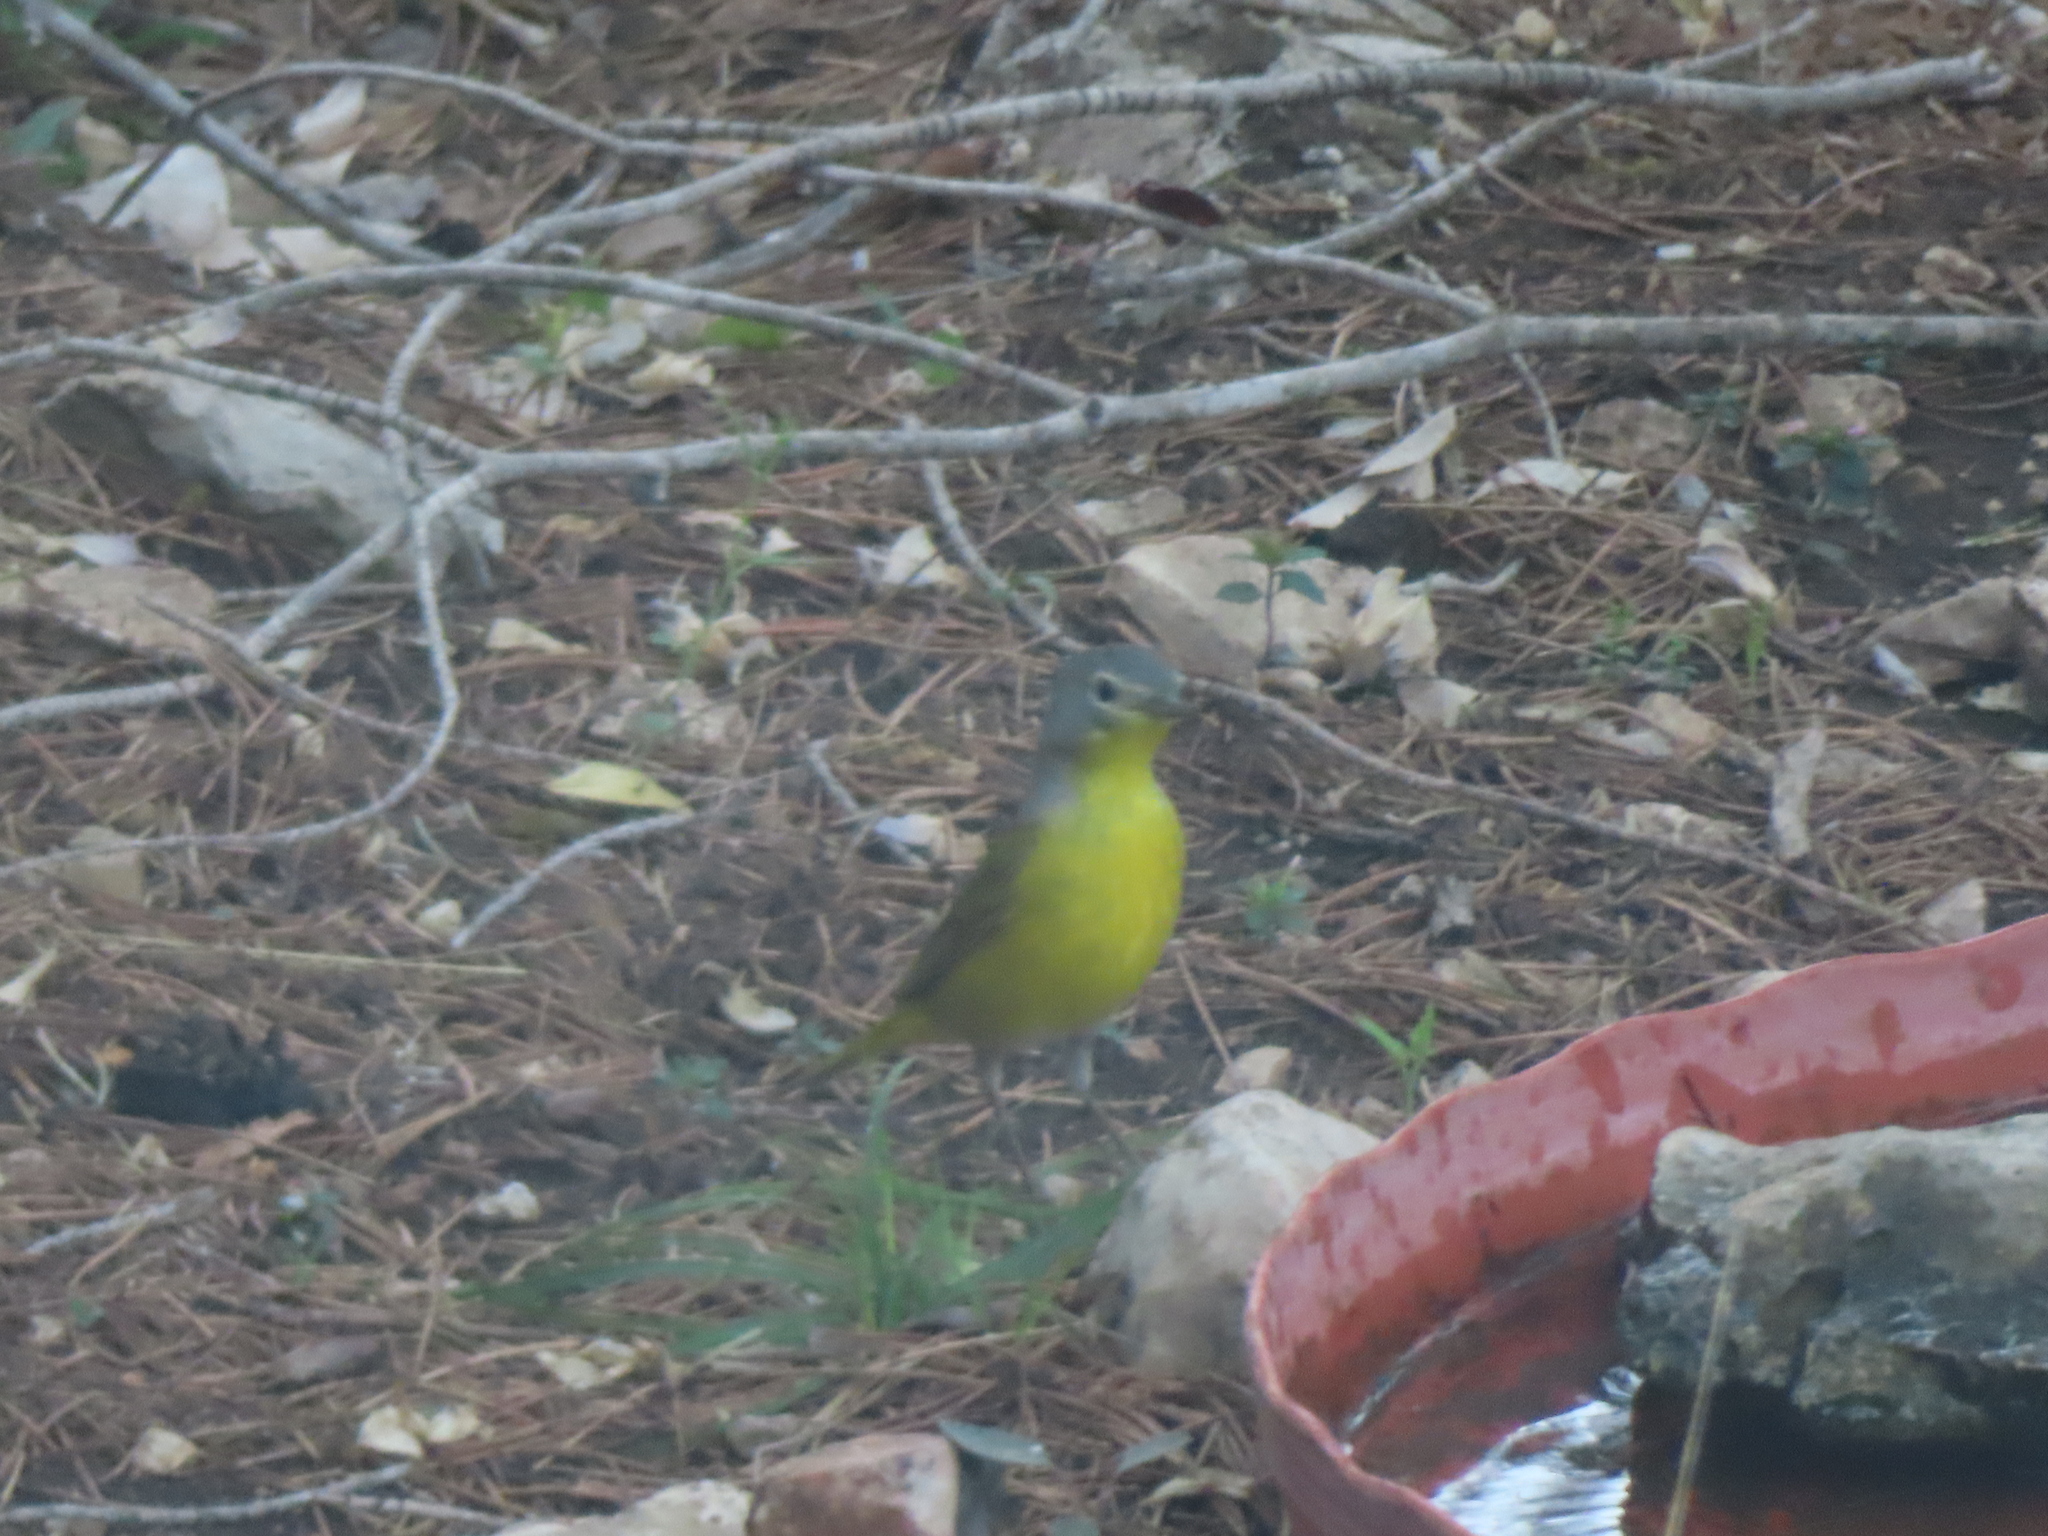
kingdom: Animalia
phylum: Chordata
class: Aves
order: Passeriformes
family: Parulidae
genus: Leiothlypis
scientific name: Leiothlypis ruficapilla
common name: Nashville warbler
